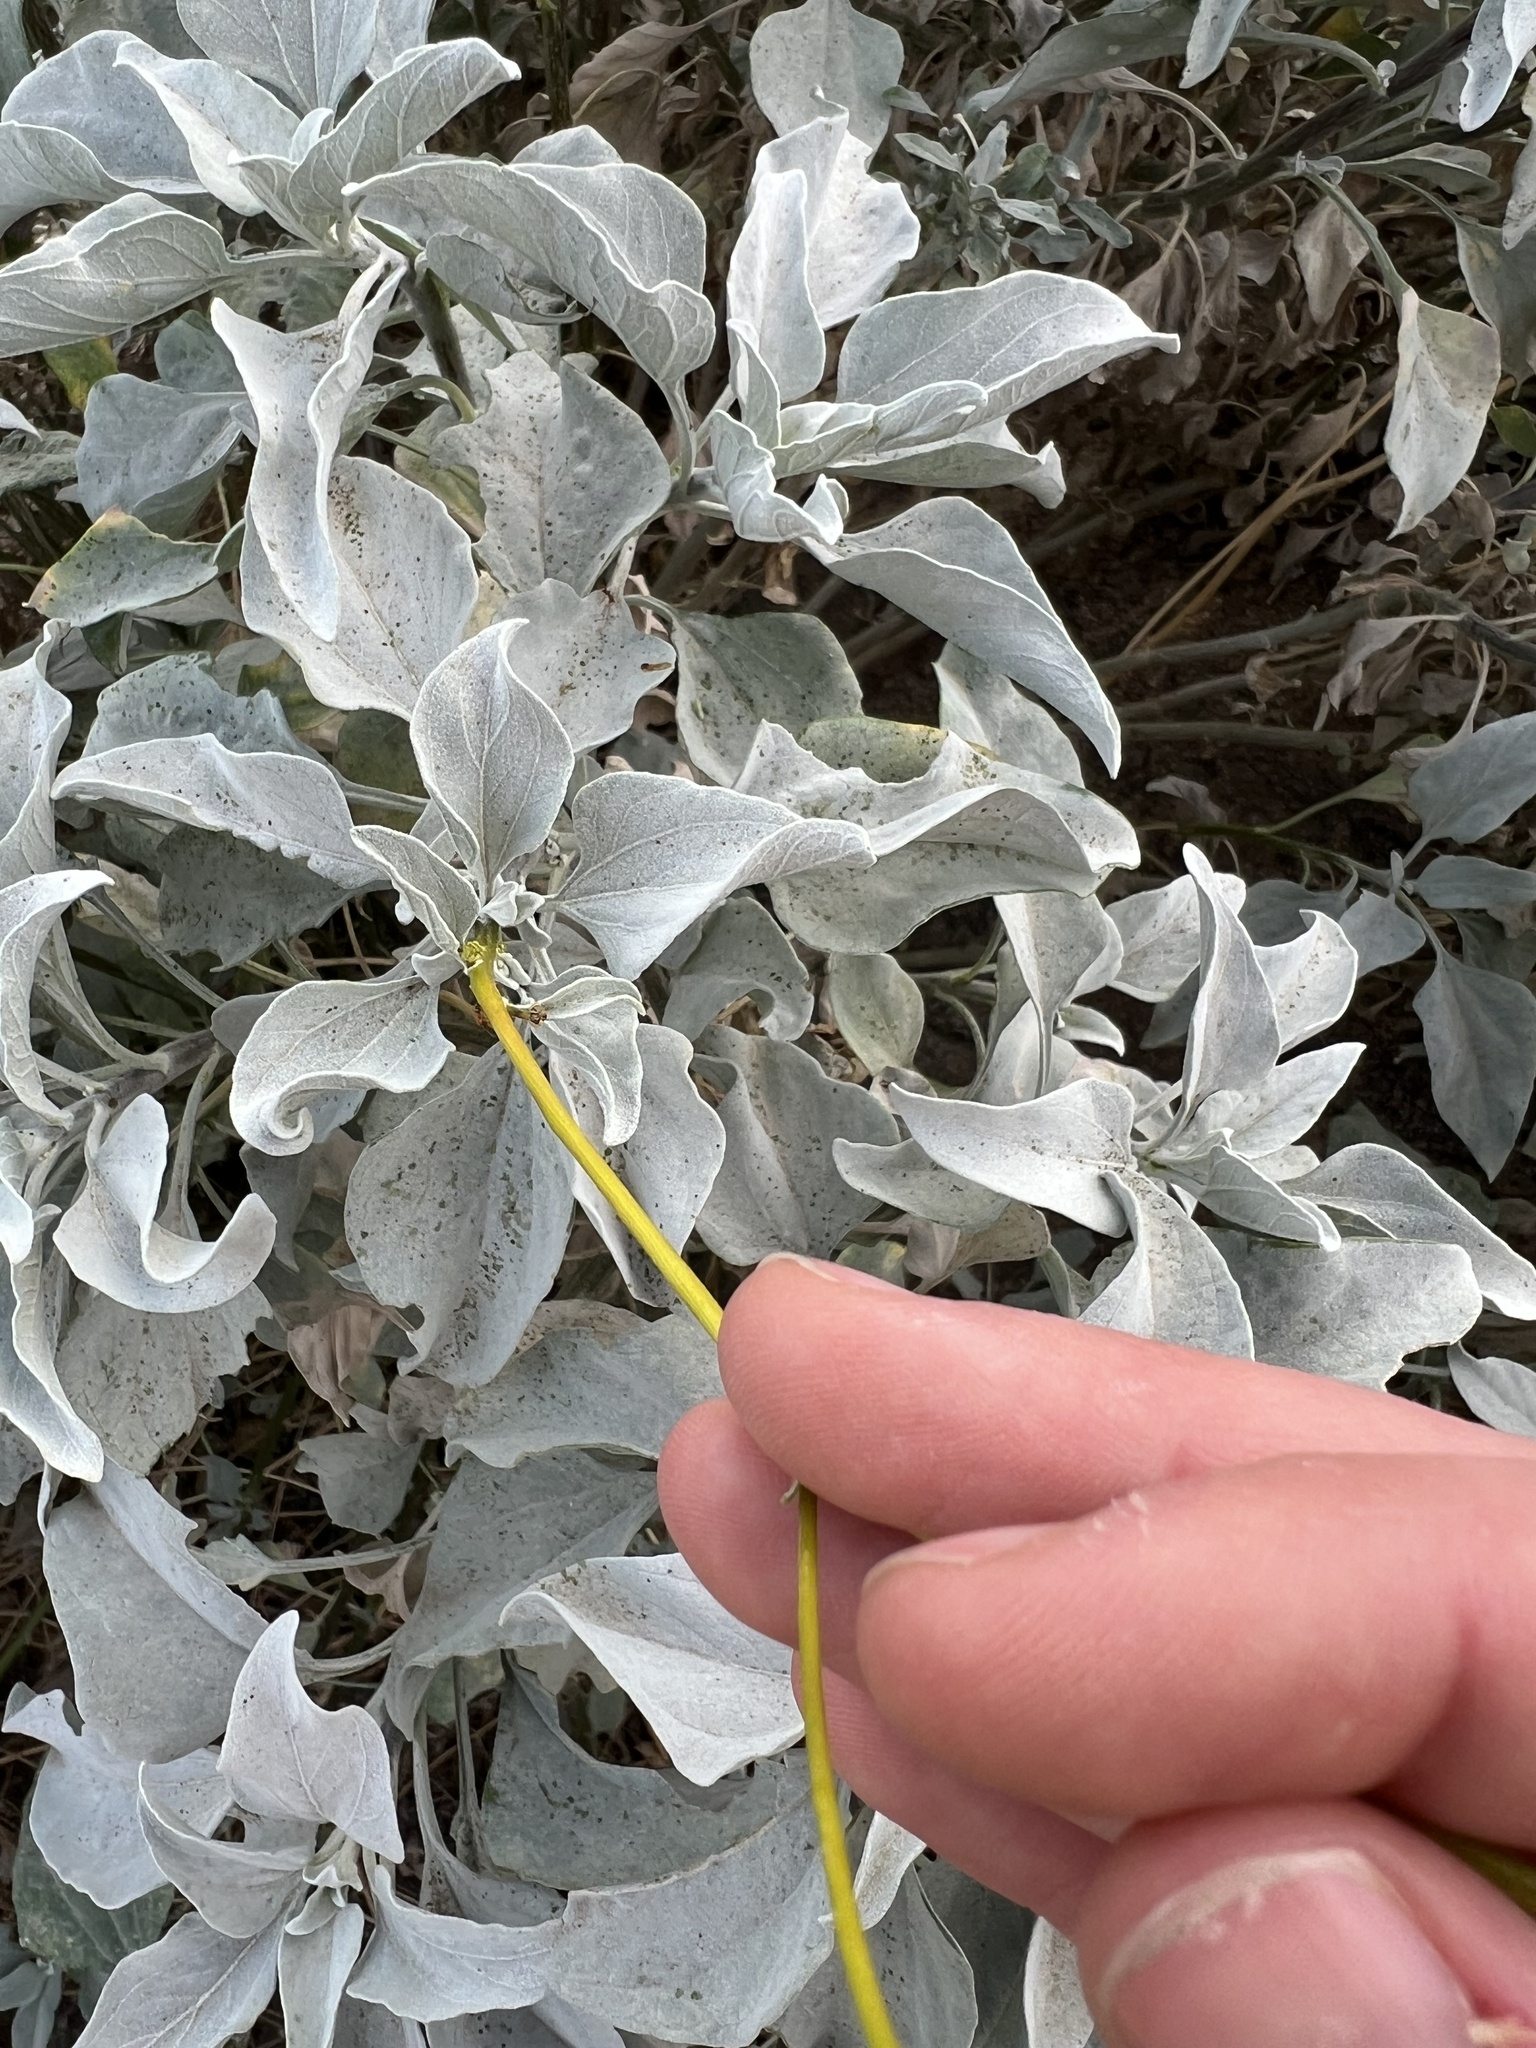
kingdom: Plantae
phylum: Tracheophyta
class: Magnoliopsida
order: Asterales
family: Asteraceae
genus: Encelia
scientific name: Encelia farinosa
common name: Brittlebush
